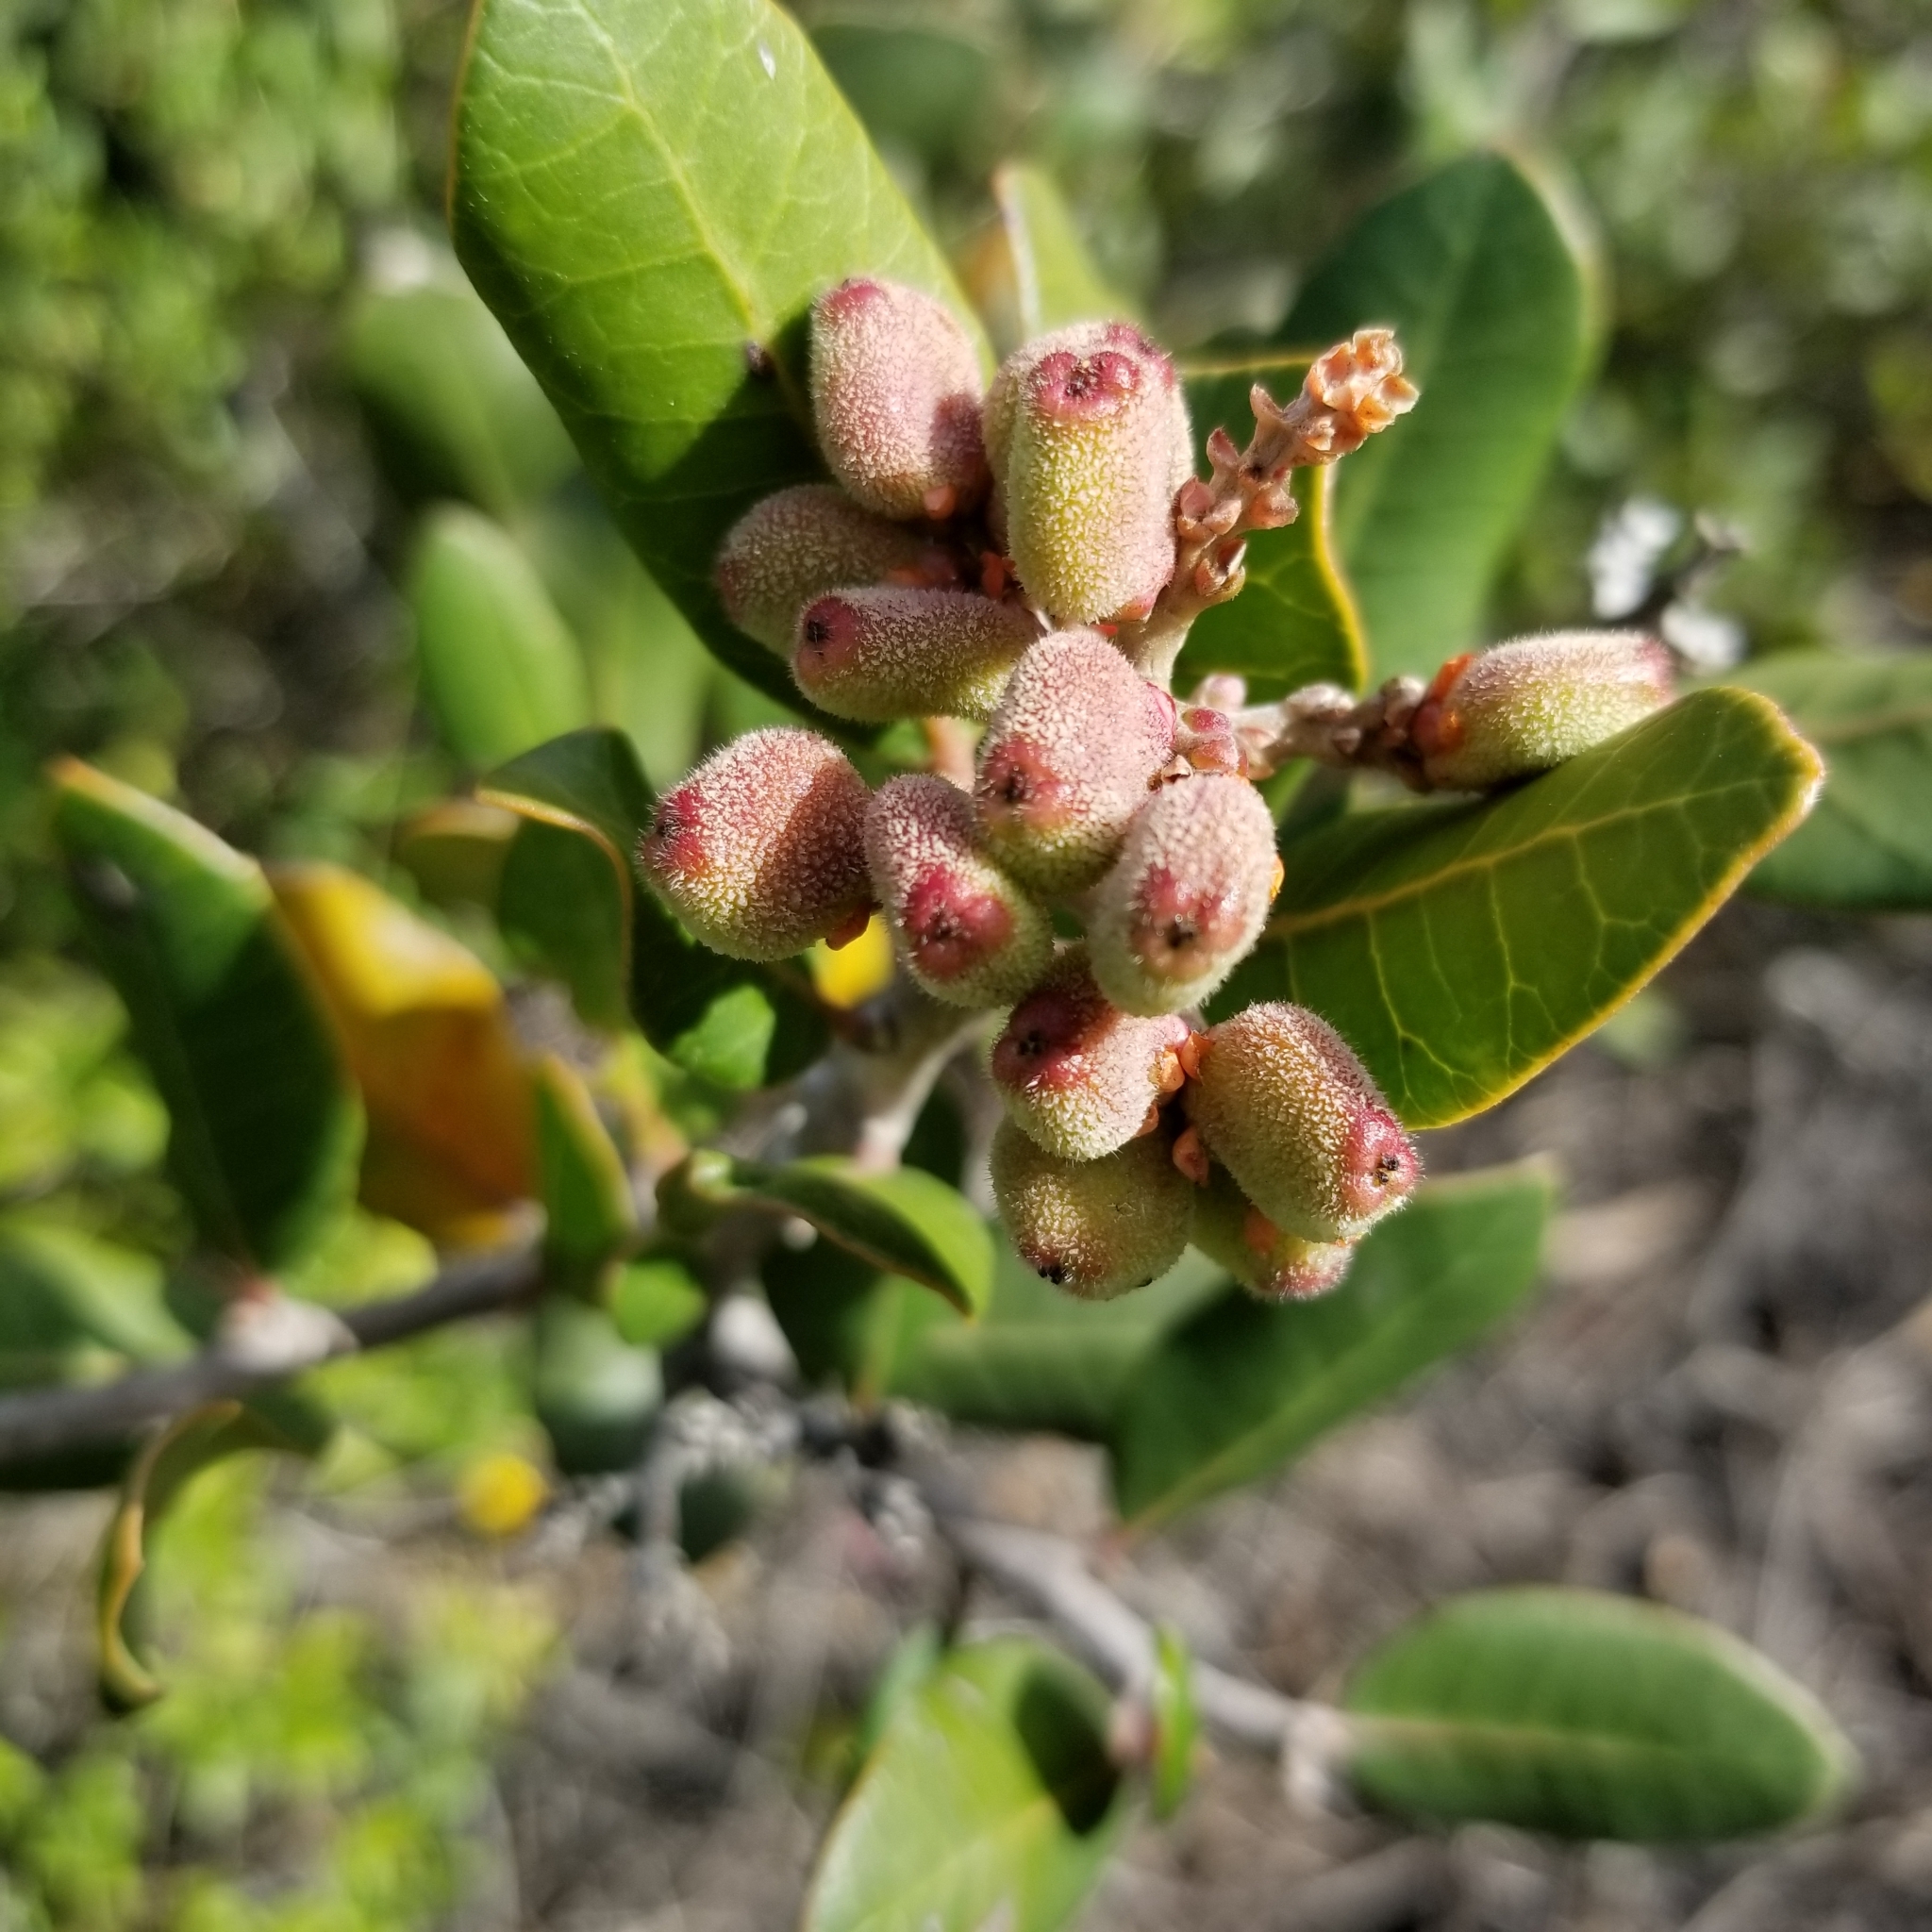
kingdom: Plantae
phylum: Tracheophyta
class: Magnoliopsida
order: Sapindales
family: Anacardiaceae
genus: Rhus
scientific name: Rhus integrifolia
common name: Lemonade sumac
